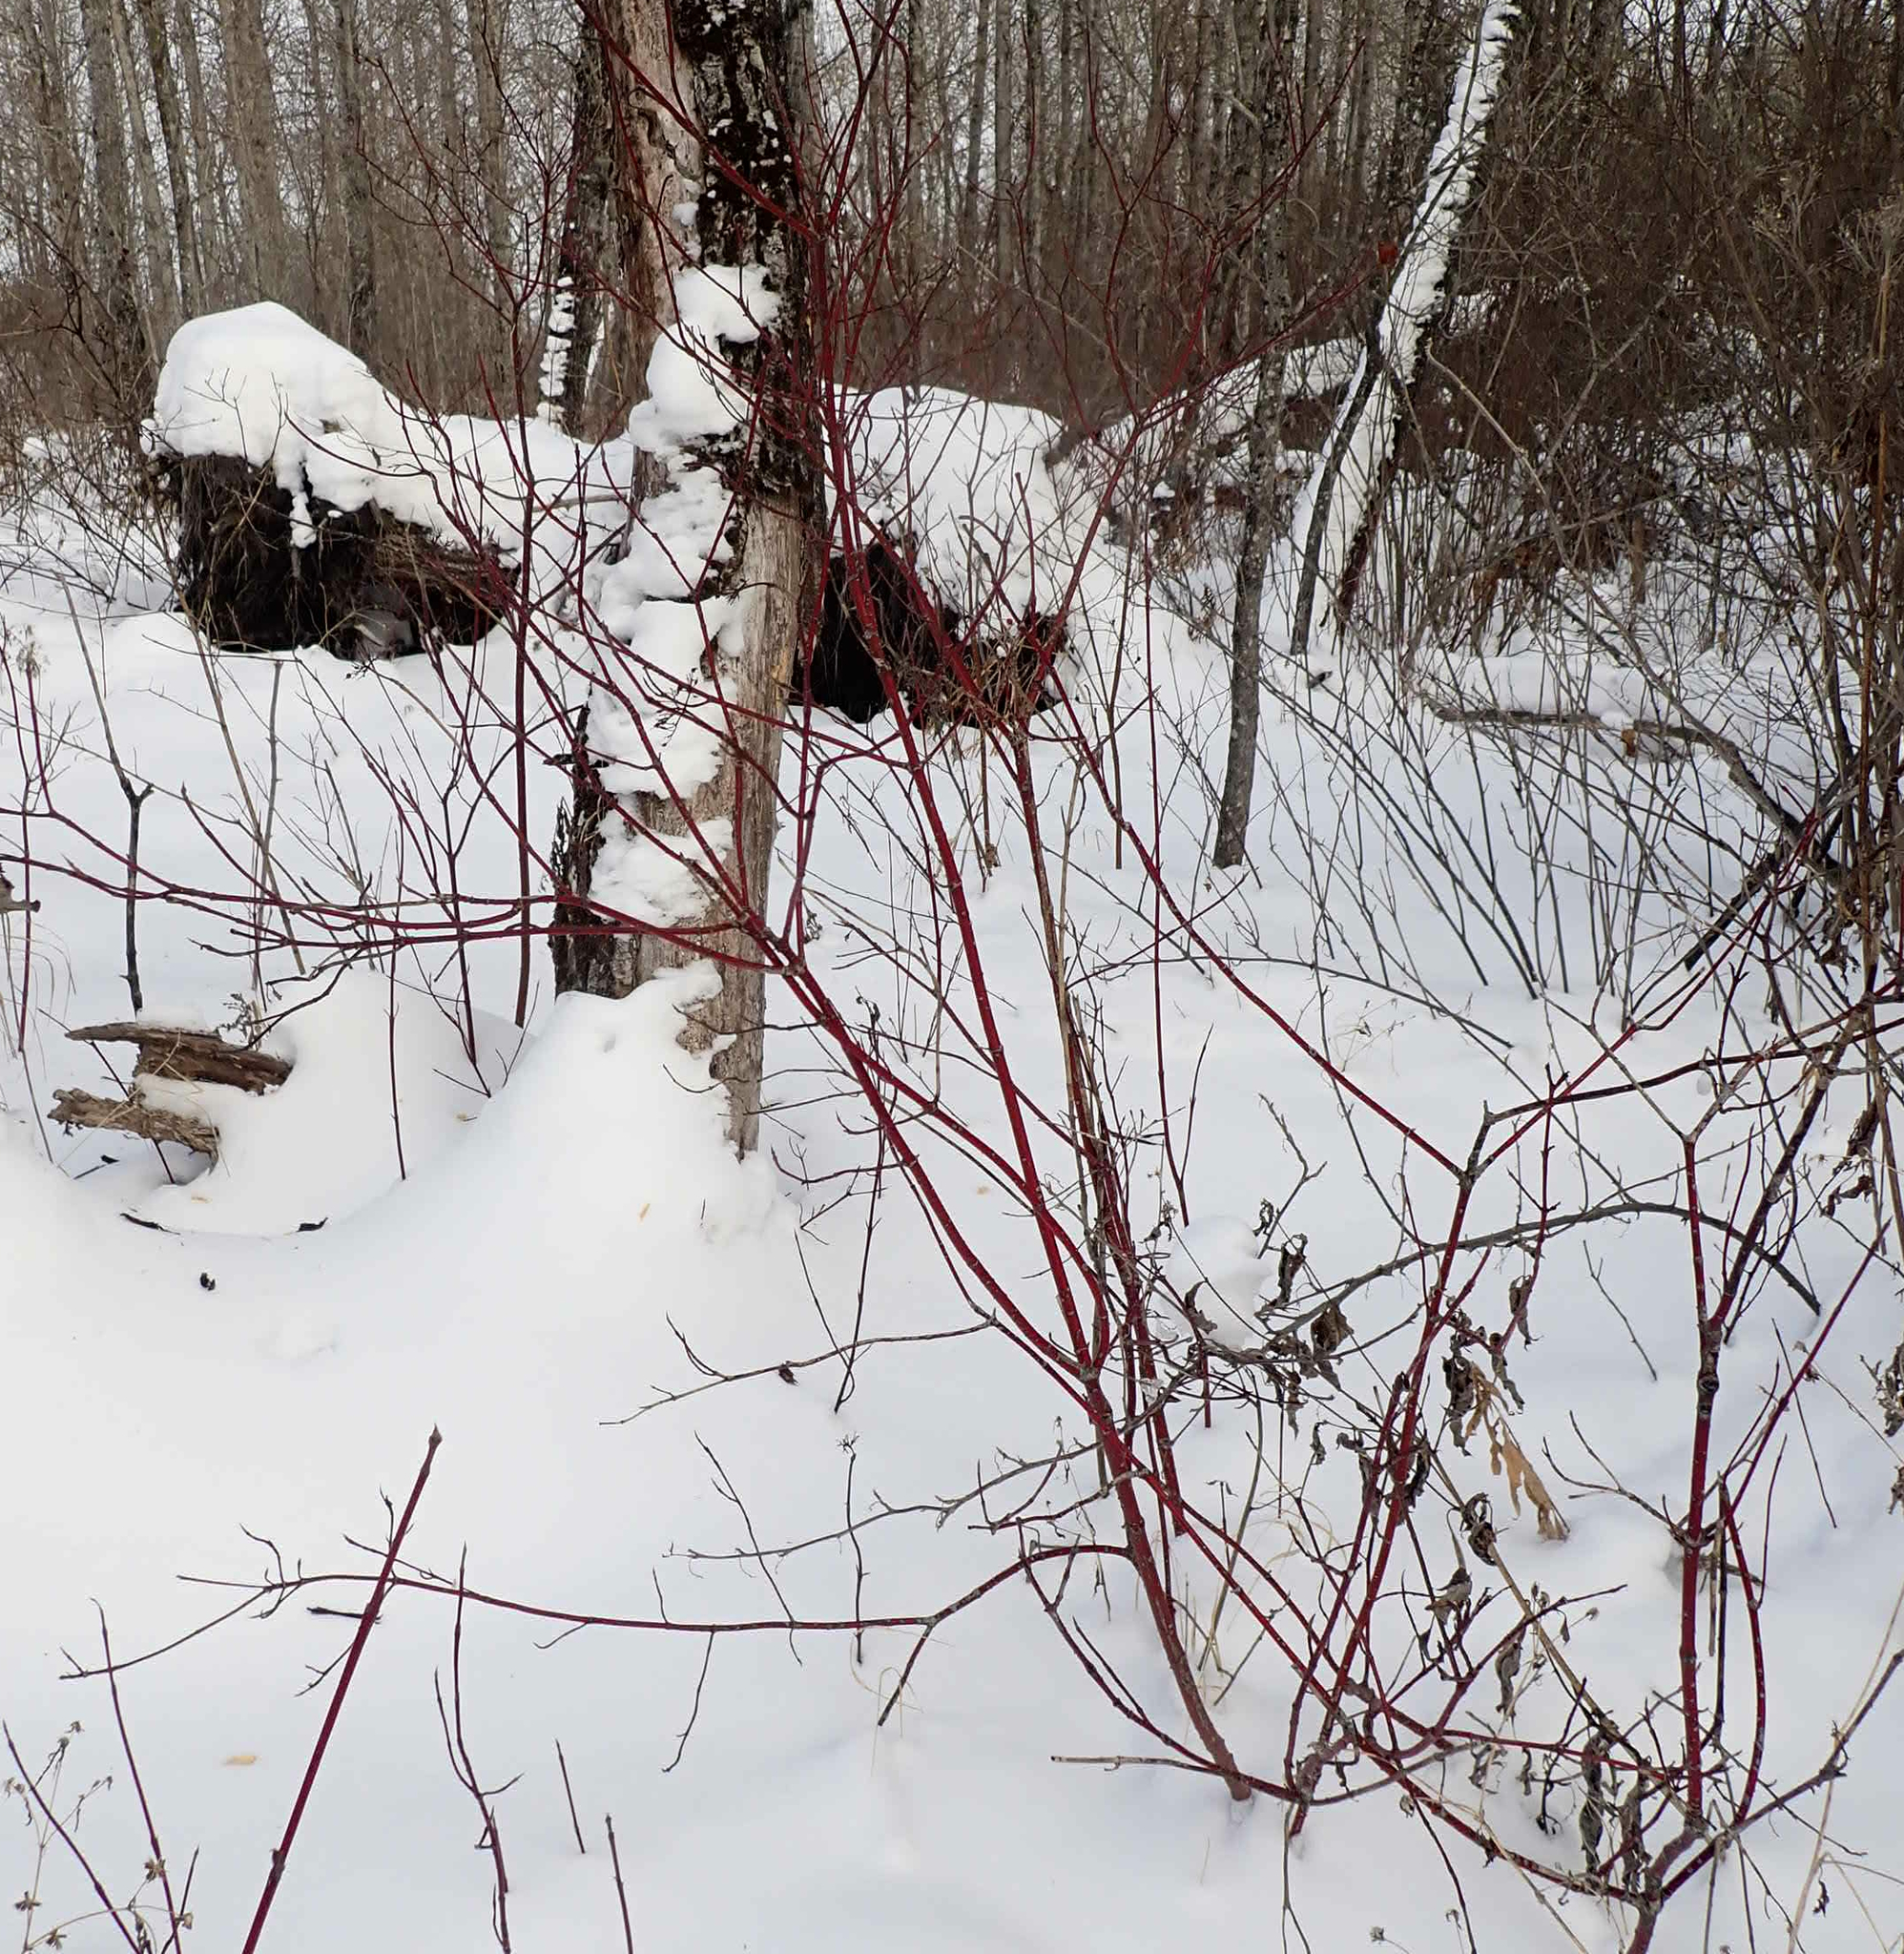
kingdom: Plantae
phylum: Tracheophyta
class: Magnoliopsida
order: Cornales
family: Cornaceae
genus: Cornus
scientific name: Cornus sericea
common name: Red-osier dogwood
